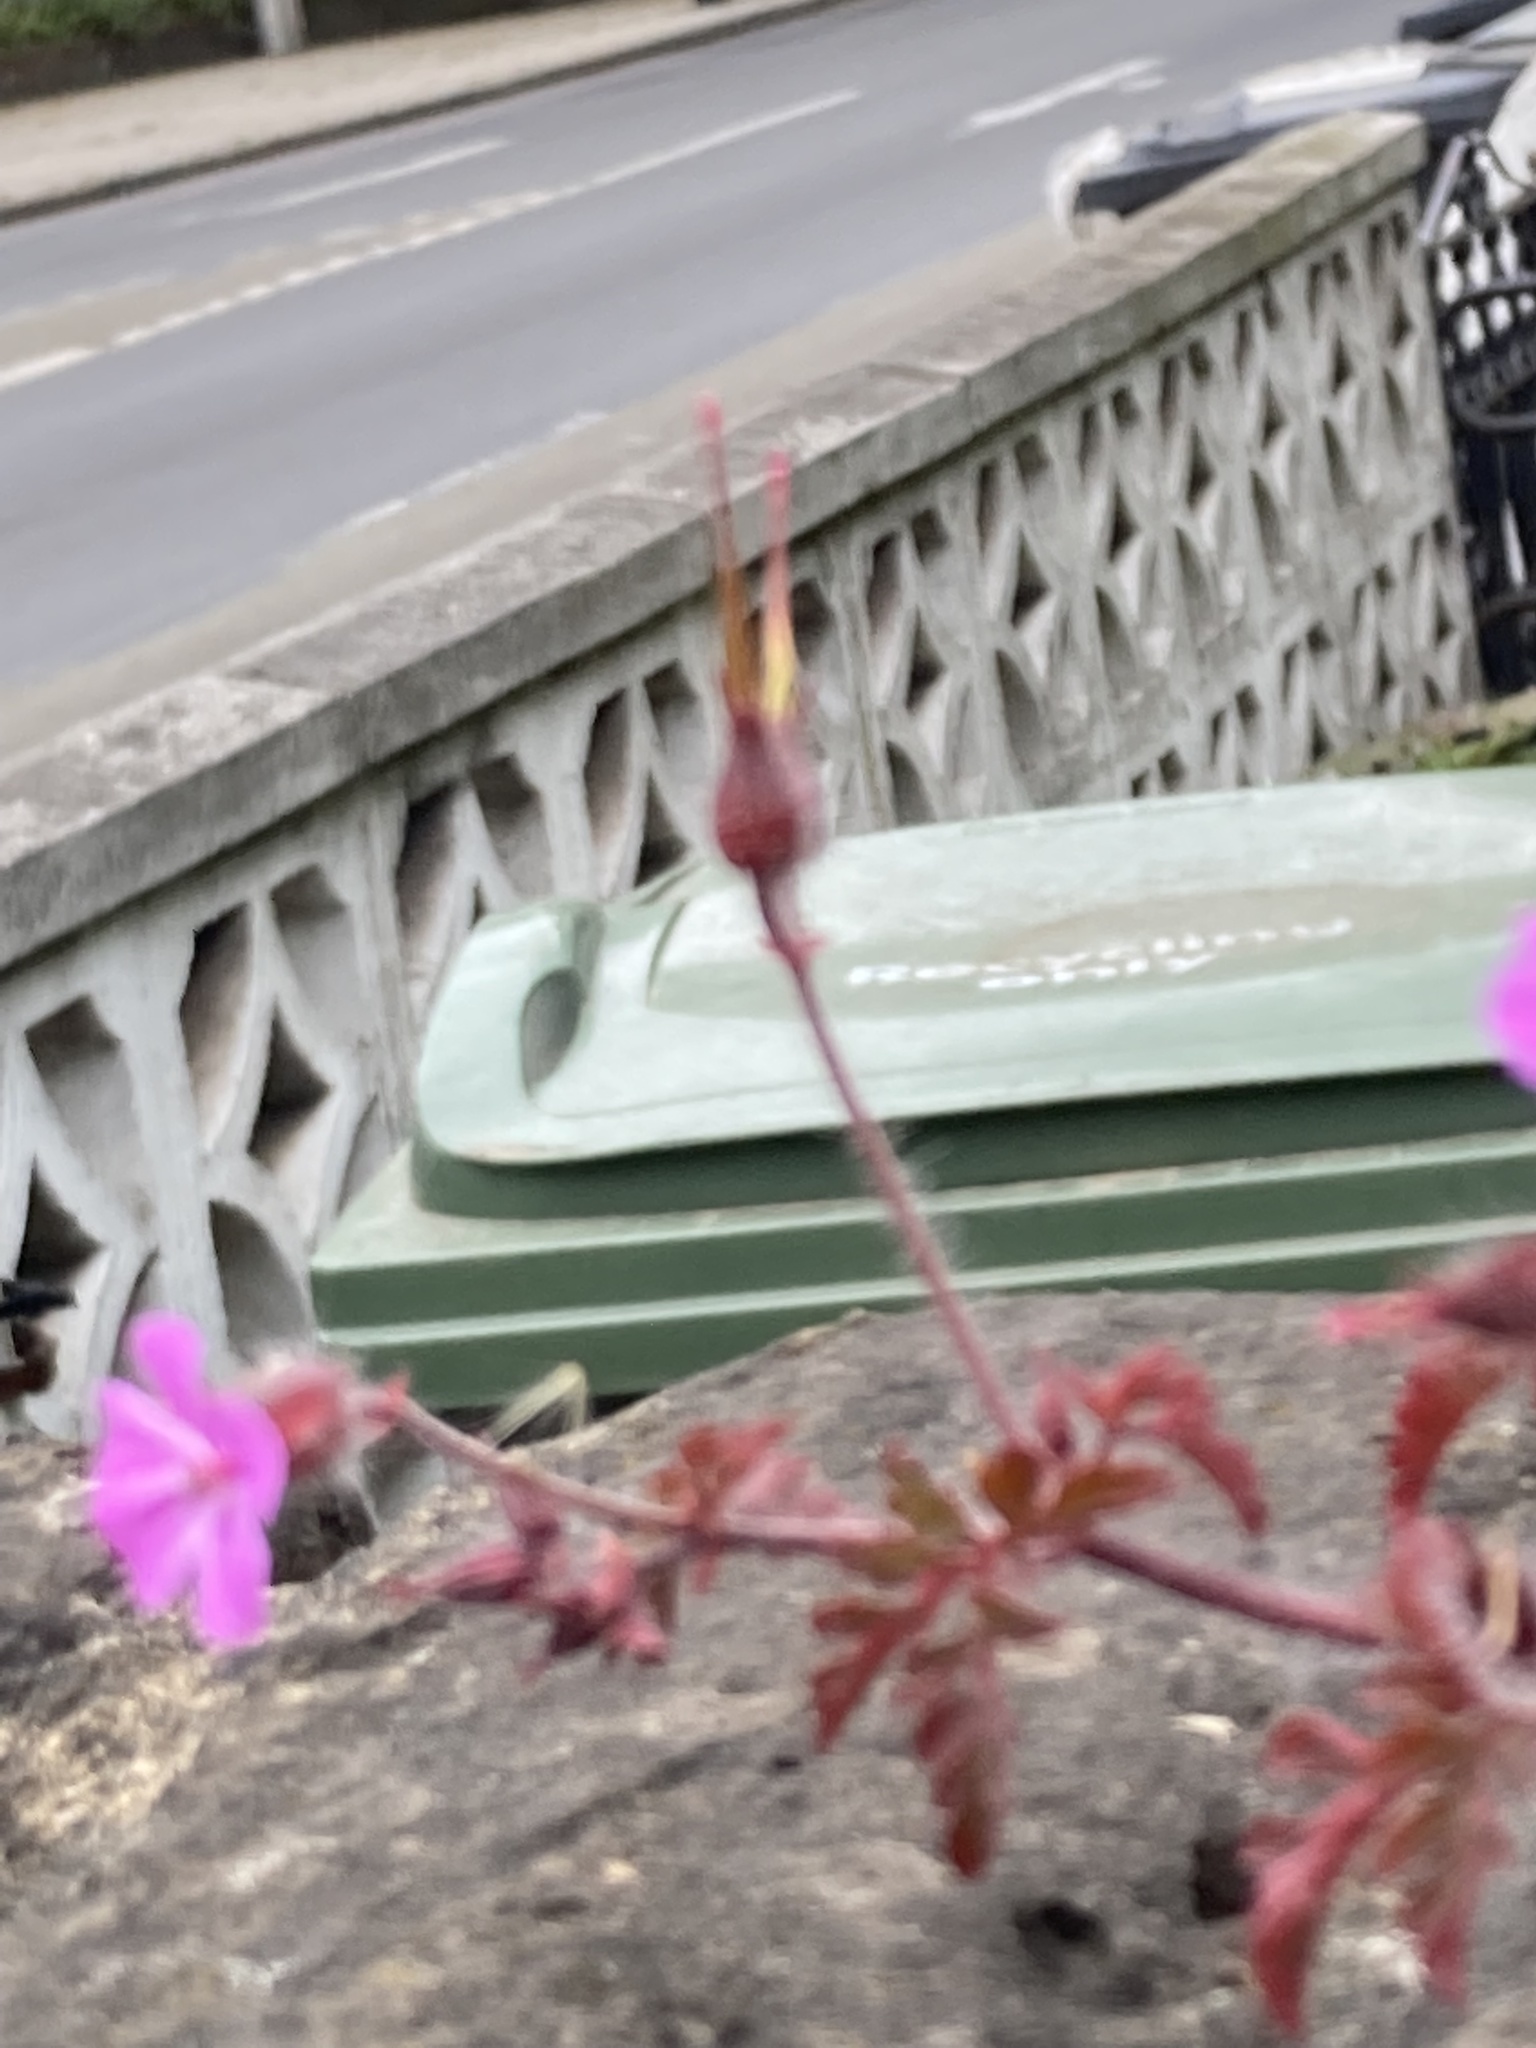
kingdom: Plantae
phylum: Tracheophyta
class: Magnoliopsida
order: Geraniales
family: Geraniaceae
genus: Geranium
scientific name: Geranium robertianum
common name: Herb-robert
